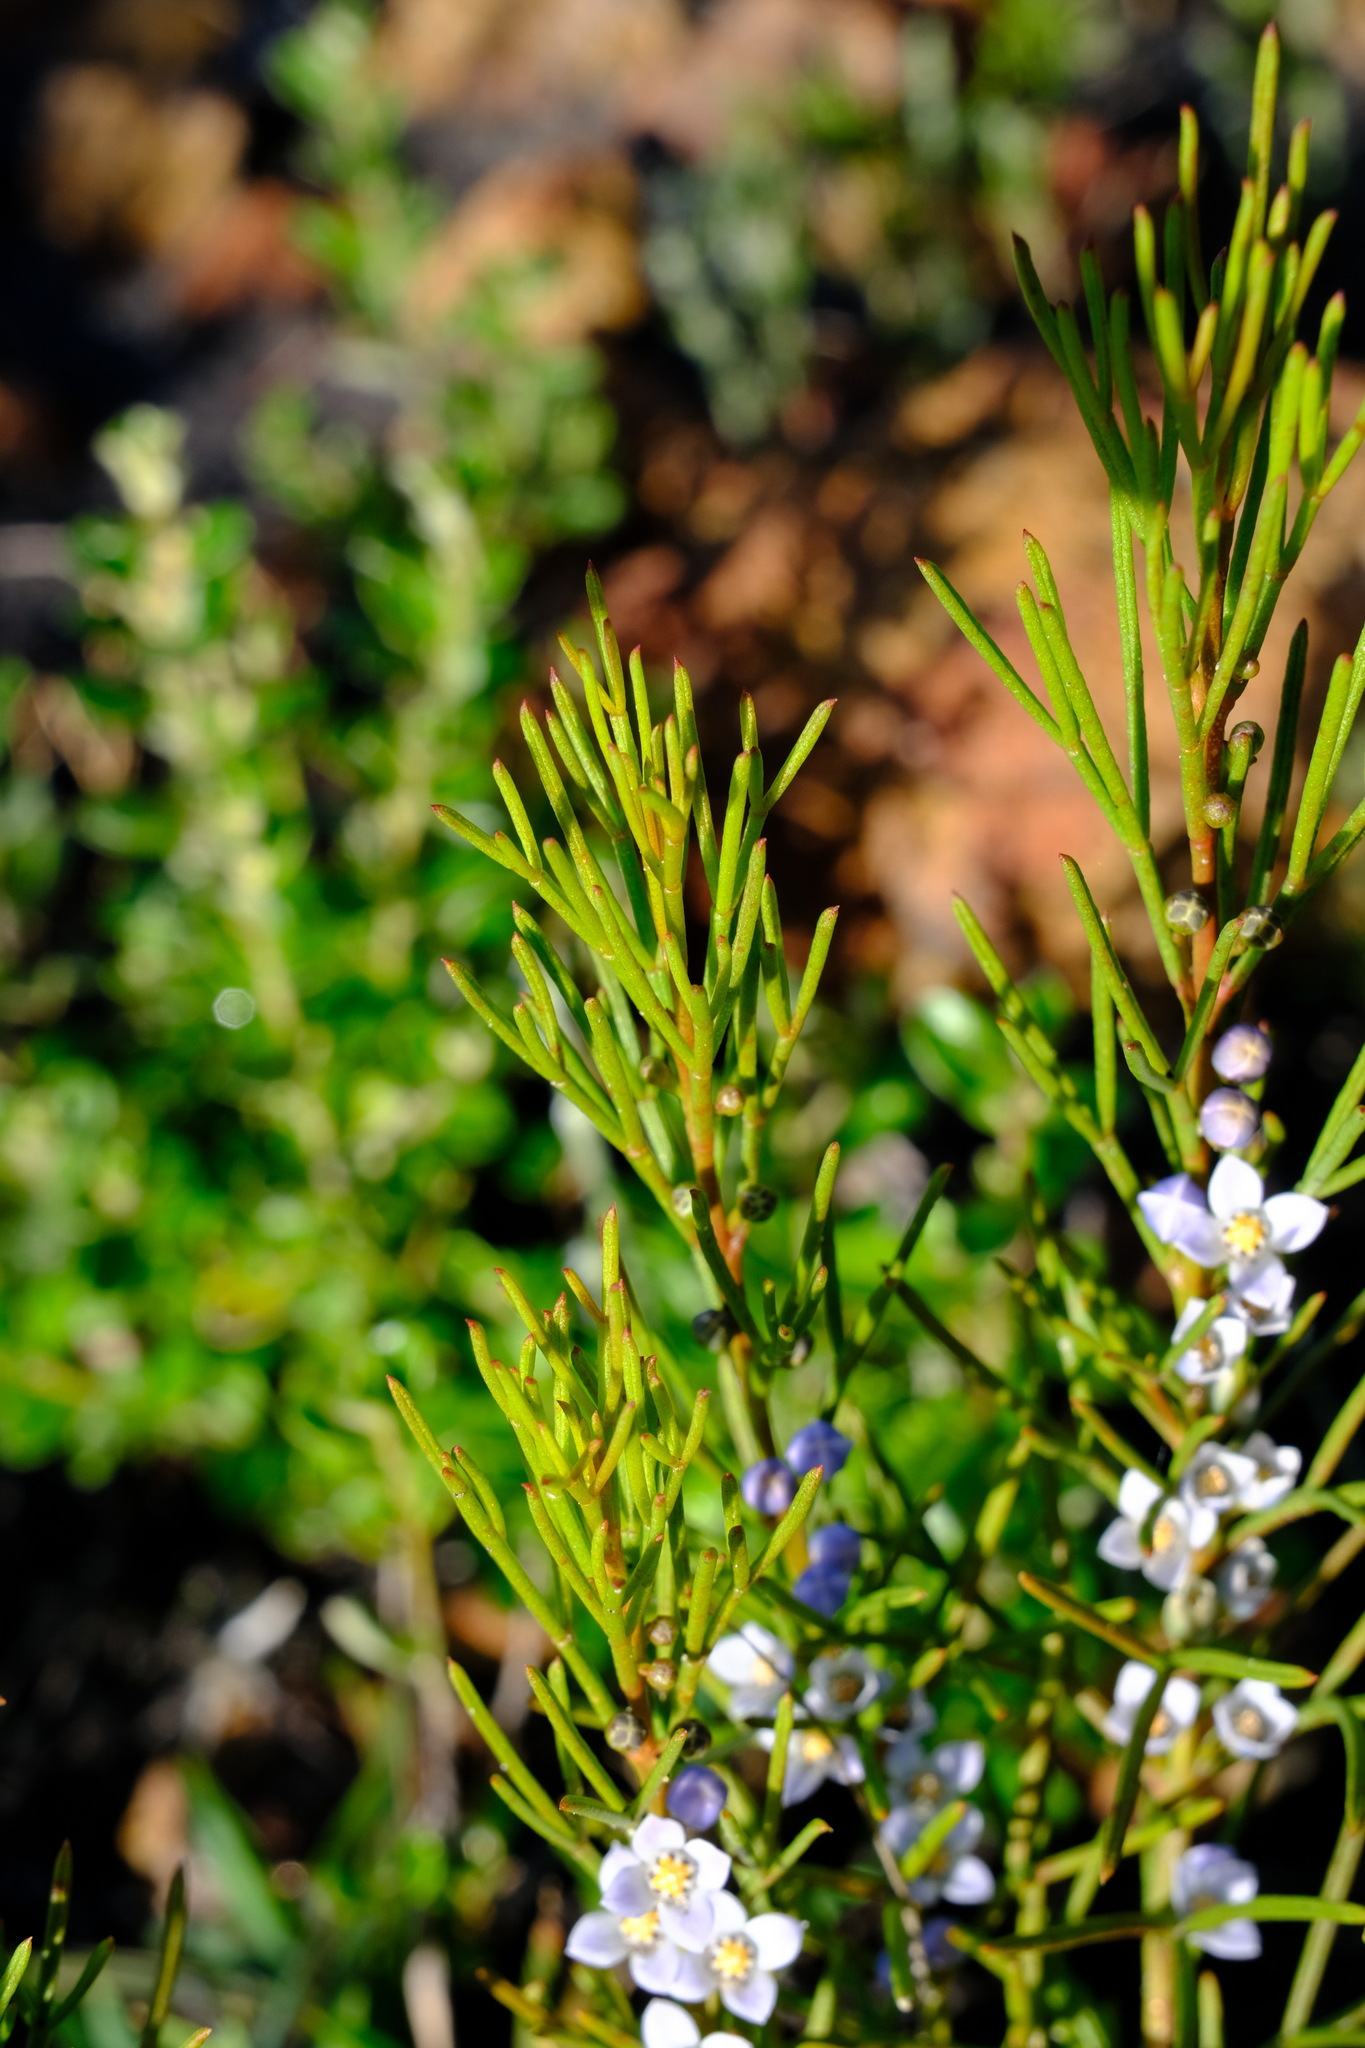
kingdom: Plantae
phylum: Tracheophyta
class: Magnoliopsida
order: Sapindales
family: Rutaceae
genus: Cyanothamnus
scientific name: Cyanothamnus ramosus
